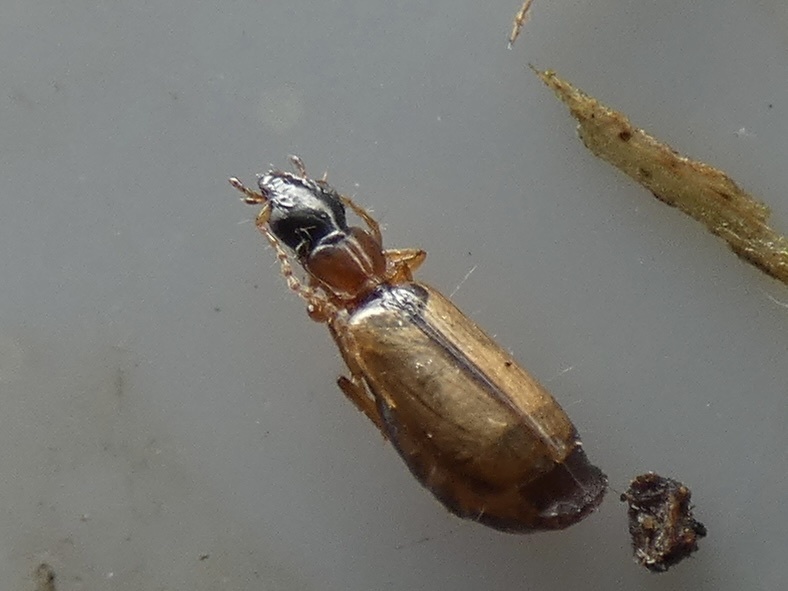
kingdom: Animalia
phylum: Arthropoda
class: Insecta
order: Coleoptera
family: Carabidae
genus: Philorhizus
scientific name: Philorhizus melanocephalus
